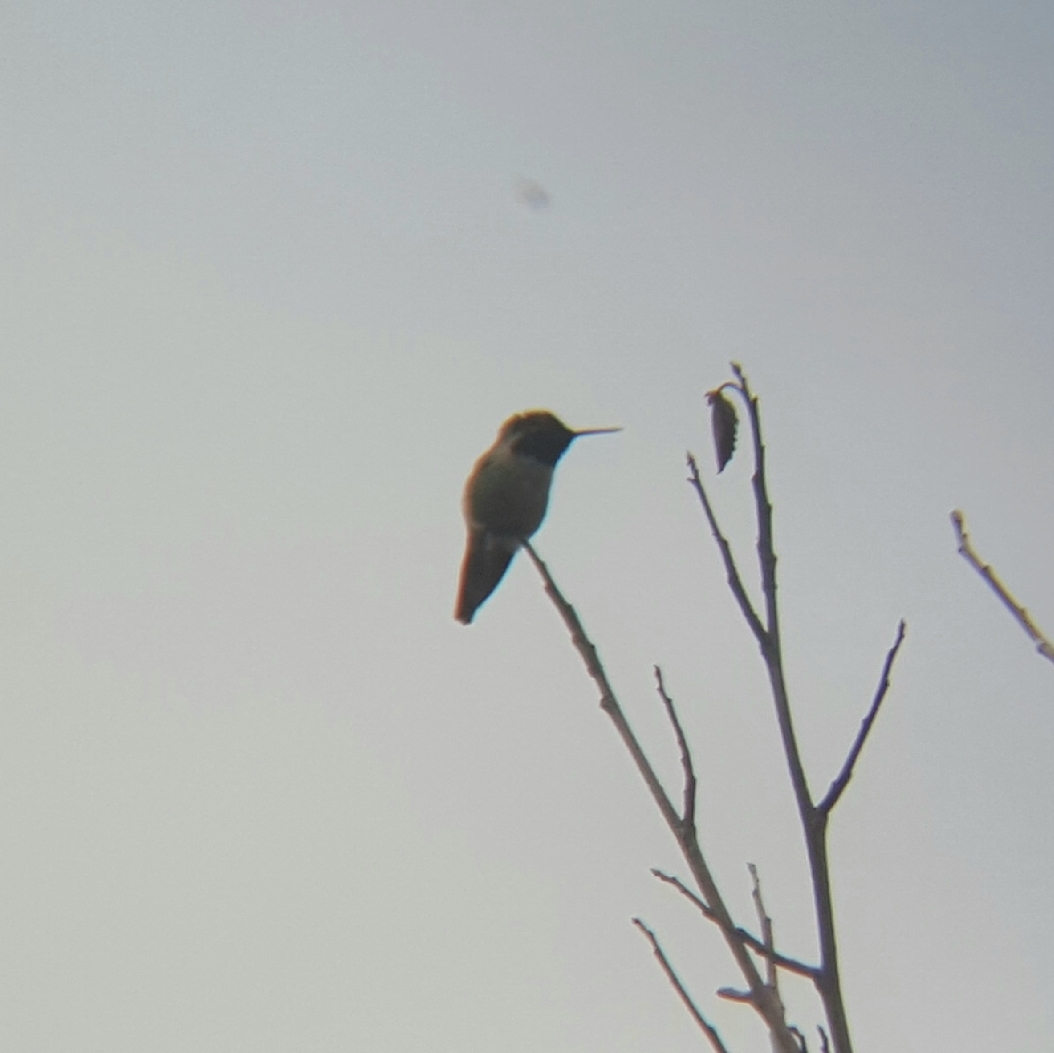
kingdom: Animalia
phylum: Chordata
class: Aves
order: Apodiformes
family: Trochilidae
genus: Calypte
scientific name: Calypte anna
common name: Anna's hummingbird
